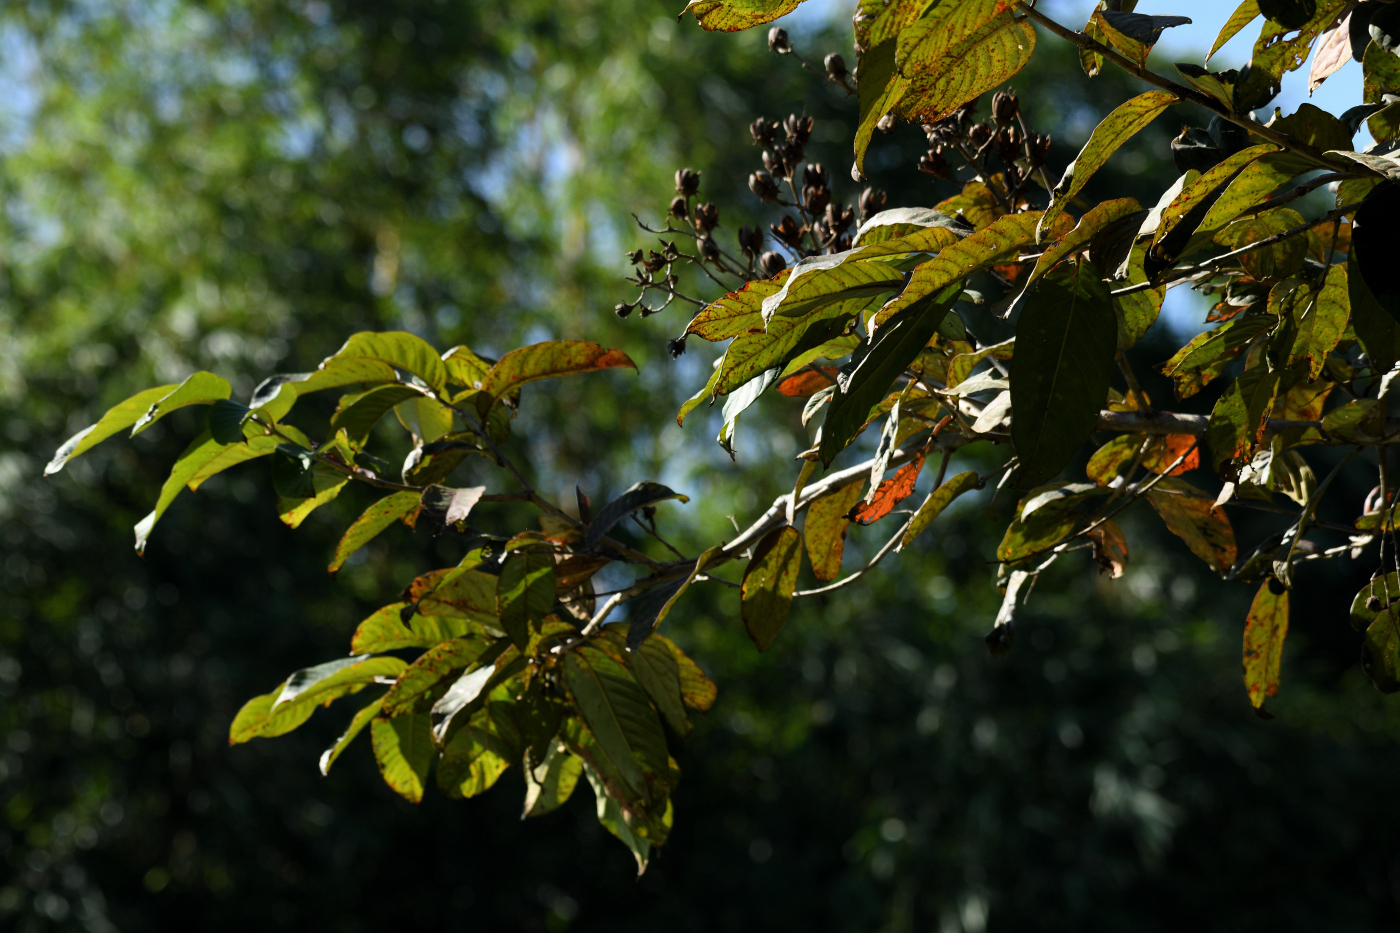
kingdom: Plantae
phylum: Tracheophyta
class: Magnoliopsida
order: Myrtales
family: Lythraceae
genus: Lagerstroemia
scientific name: Lagerstroemia floribunda
